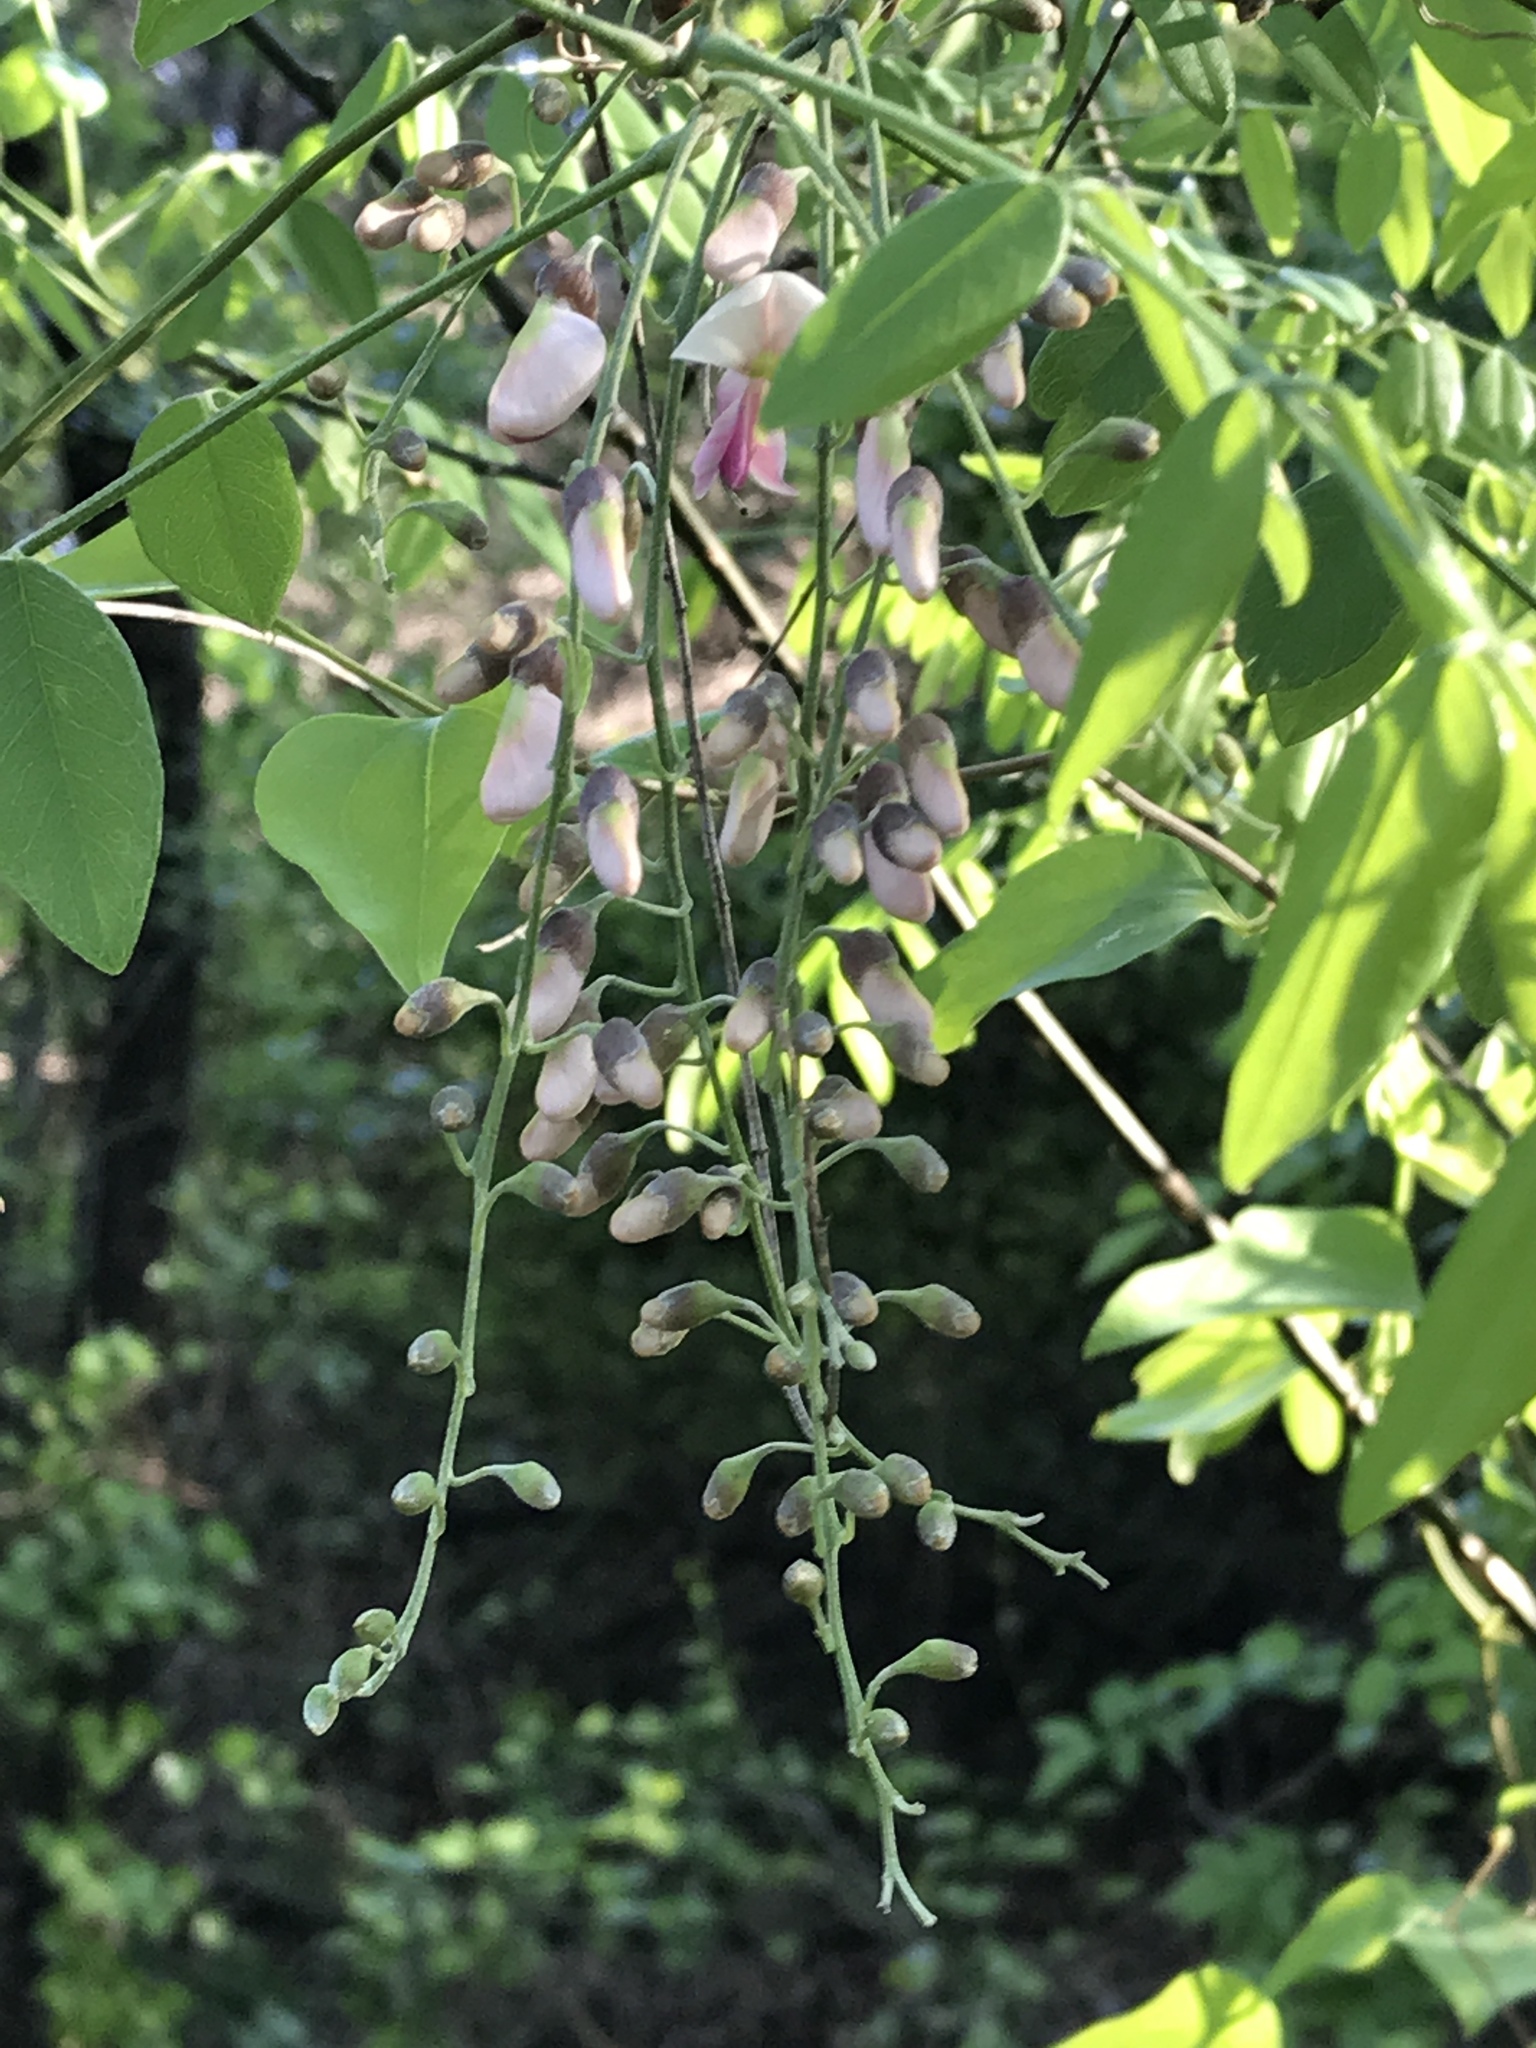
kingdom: Plantae
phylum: Tracheophyta
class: Magnoliopsida
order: Fabales
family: Fabaceae
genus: Styphnolobium
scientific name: Styphnolobium affine
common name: Texas sophora
